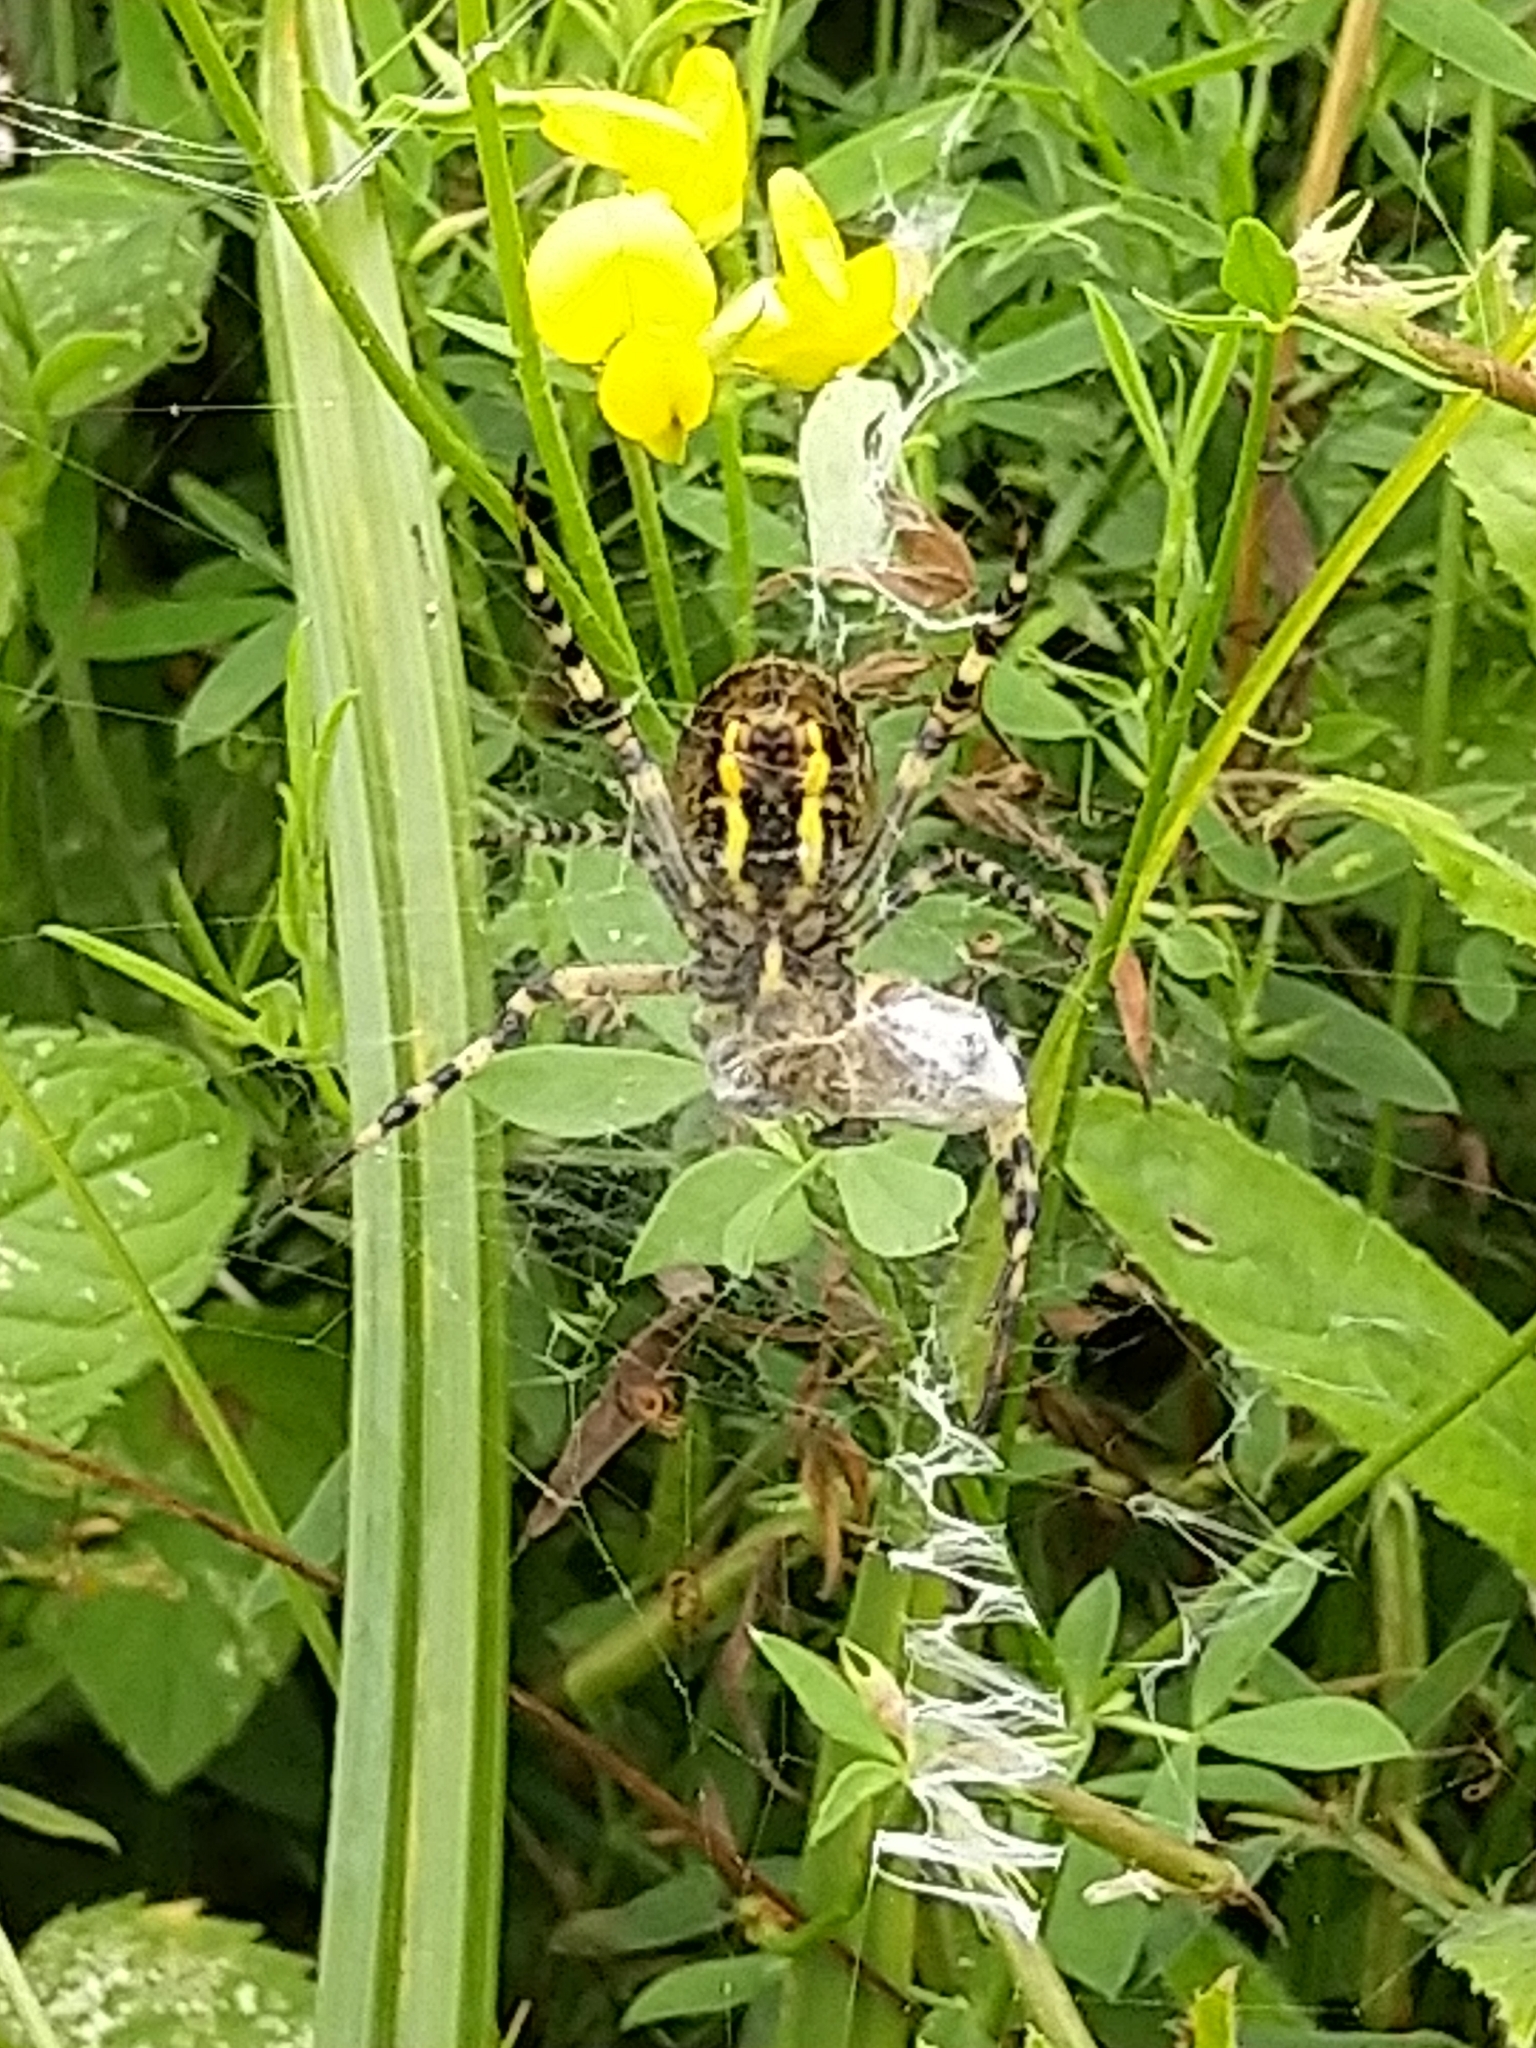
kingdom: Animalia
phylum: Arthropoda
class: Arachnida
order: Araneae
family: Araneidae
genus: Argiope
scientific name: Argiope bruennichi
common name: Wasp spider
